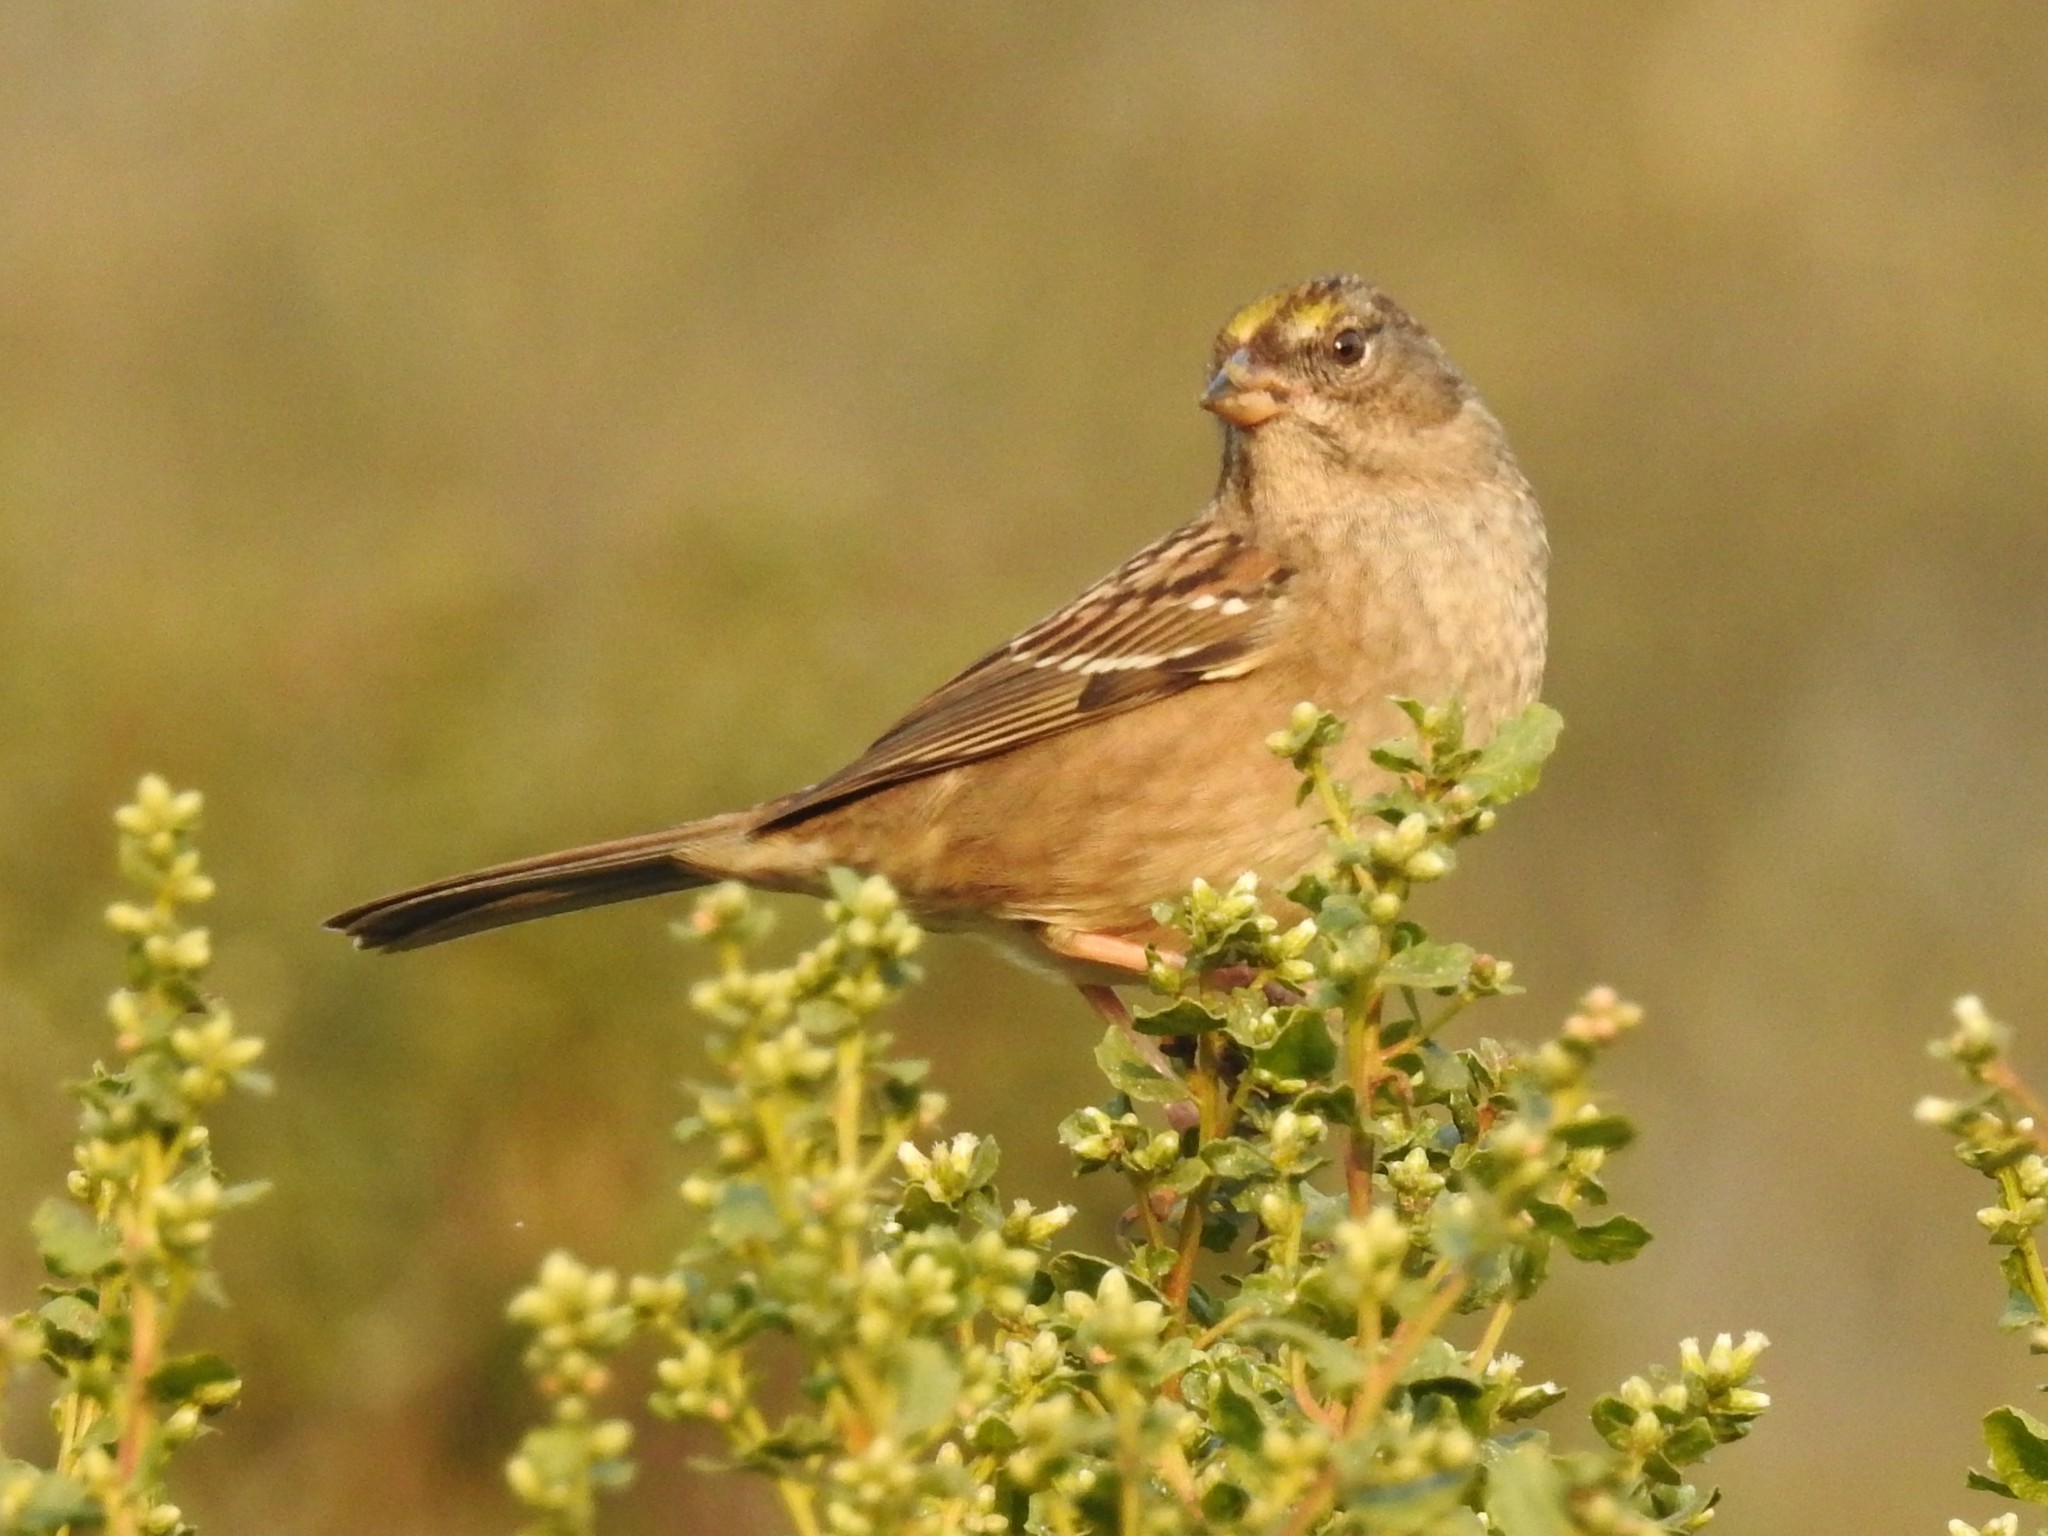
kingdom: Animalia
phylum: Chordata
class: Aves
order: Passeriformes
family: Passerellidae
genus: Zonotrichia
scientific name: Zonotrichia atricapilla
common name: Golden-crowned sparrow
